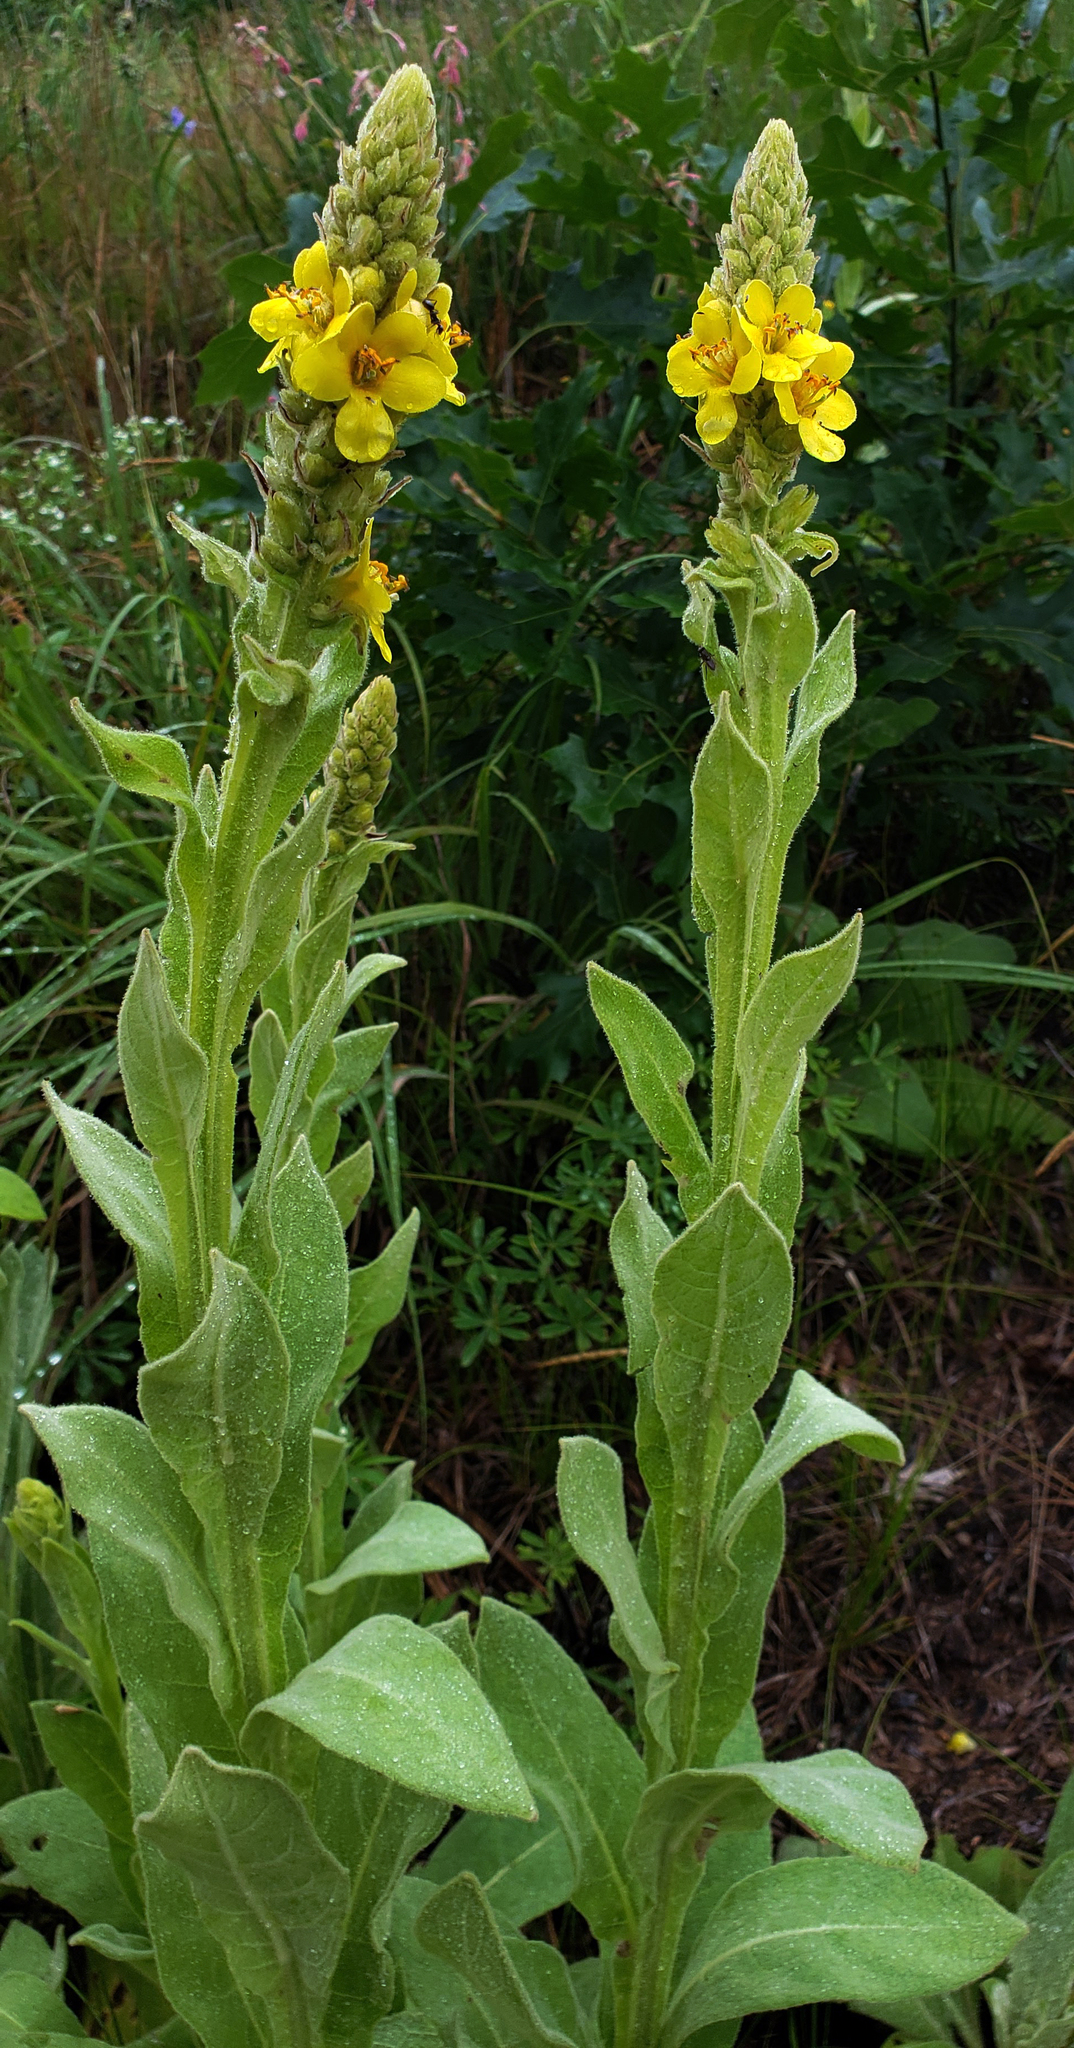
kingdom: Plantae
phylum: Tracheophyta
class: Magnoliopsida
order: Lamiales
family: Scrophulariaceae
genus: Verbascum
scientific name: Verbascum thapsus
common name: Common mullein
